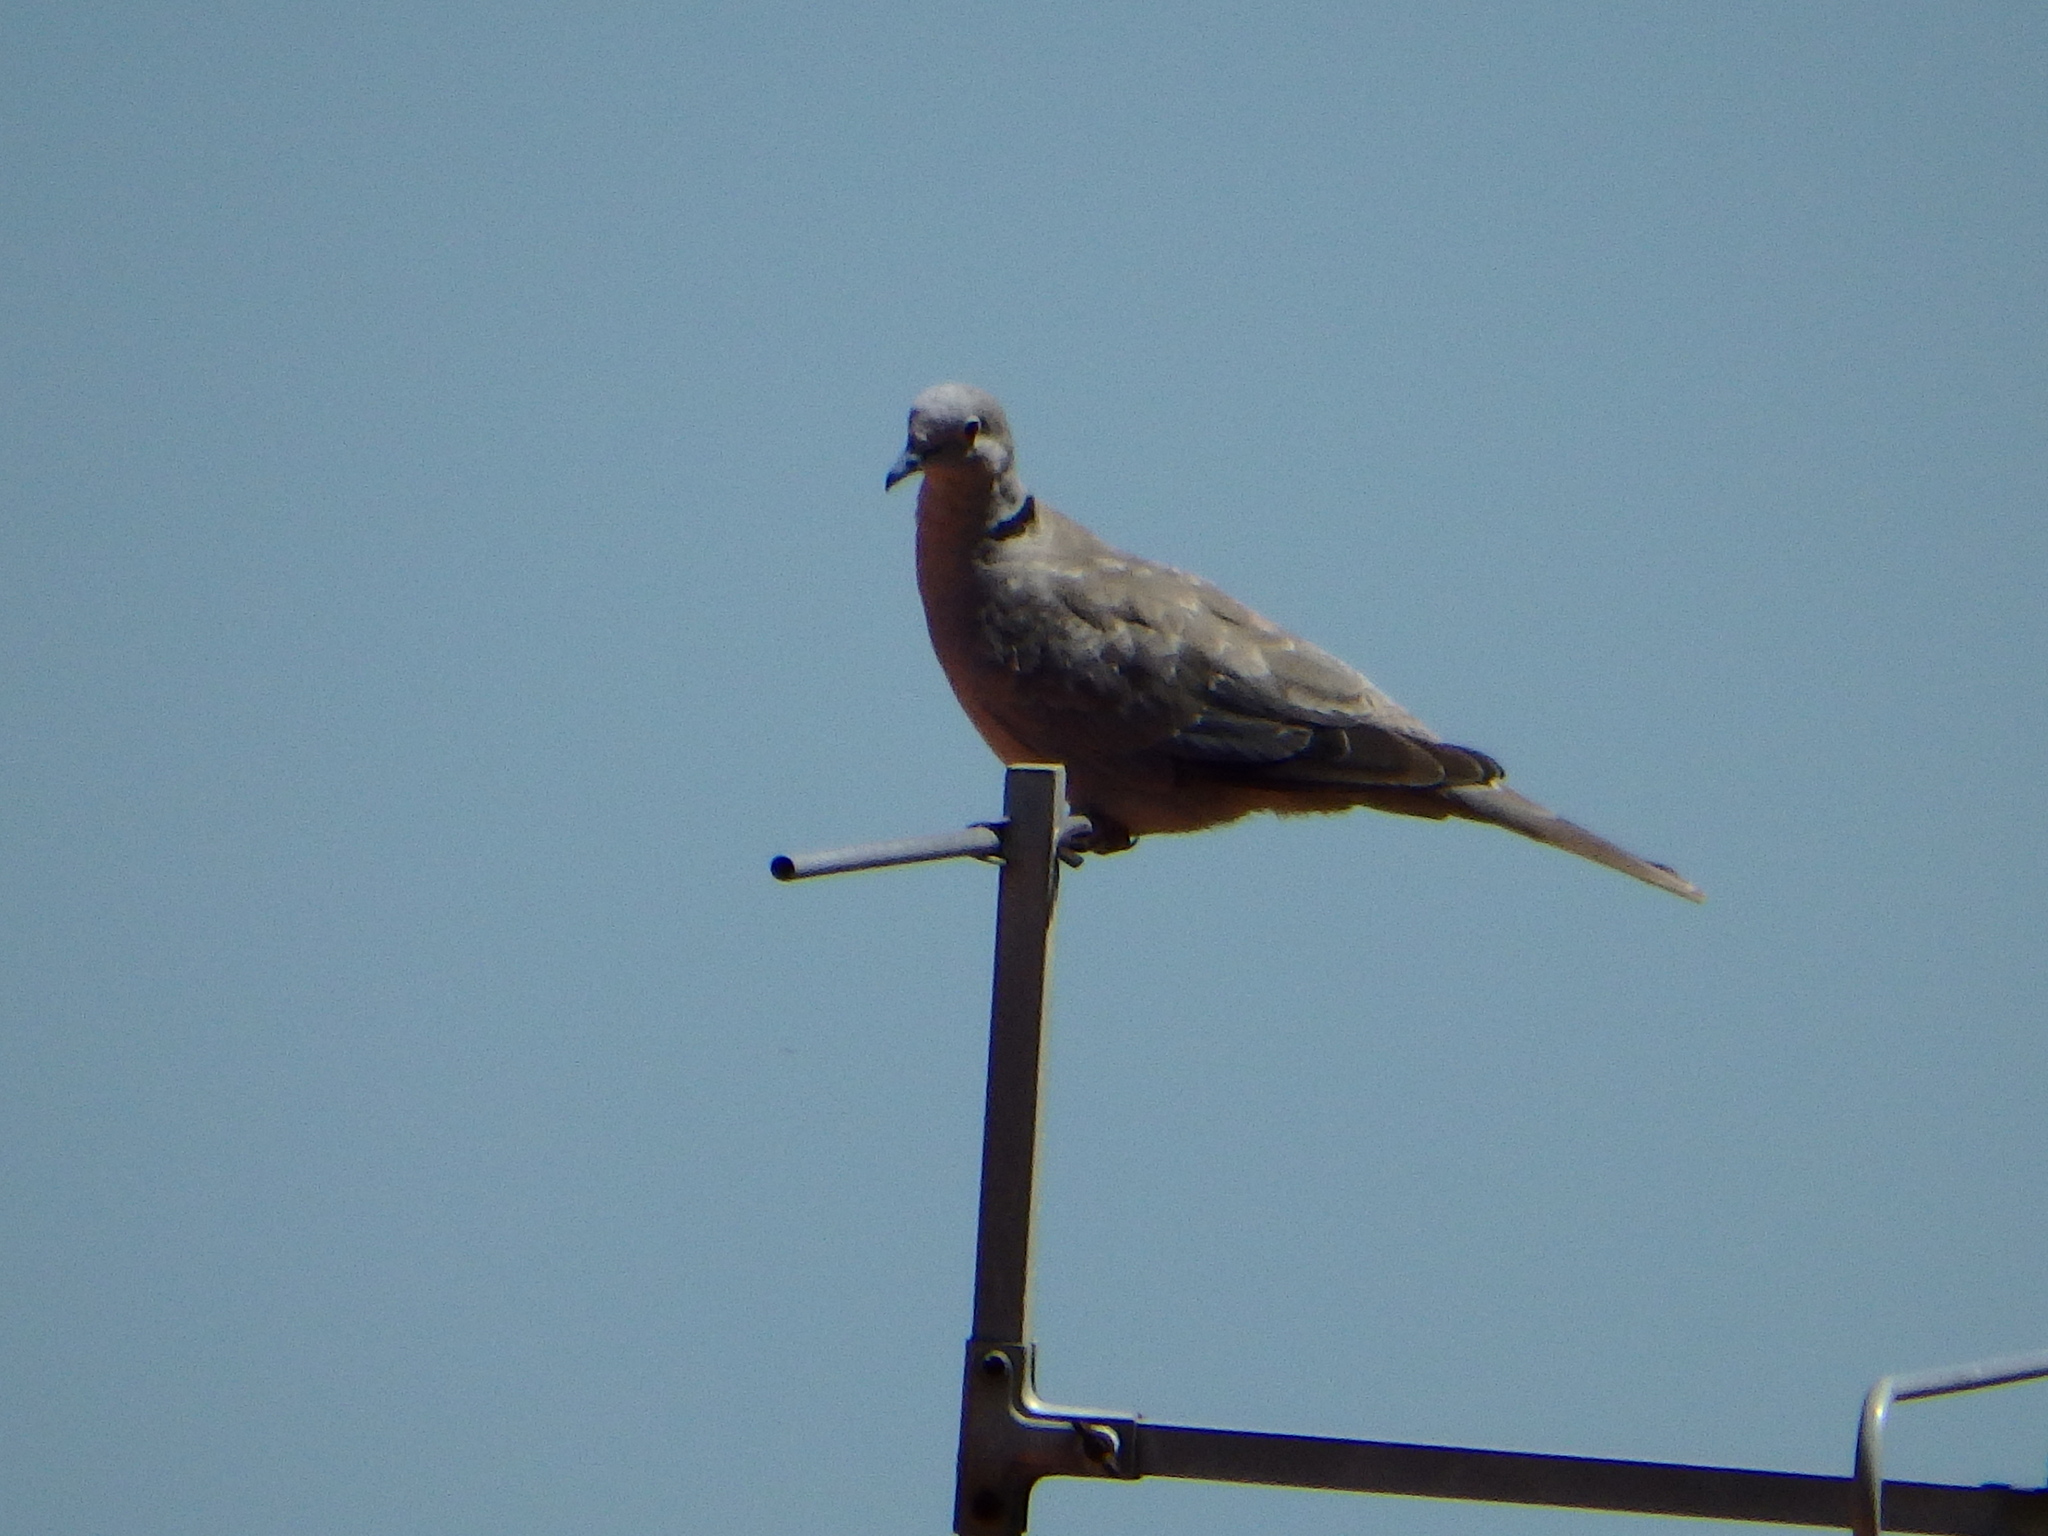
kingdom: Animalia
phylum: Chordata
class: Aves
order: Columbiformes
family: Columbidae
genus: Streptopelia
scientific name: Streptopelia decaocto
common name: Eurasian collared dove
